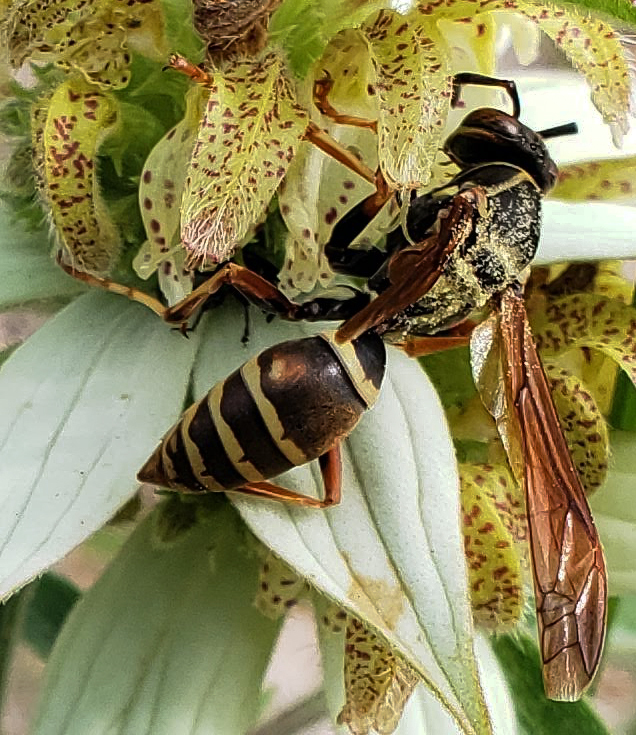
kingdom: Animalia
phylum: Arthropoda
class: Insecta
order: Hymenoptera
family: Eumenidae
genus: Polistes
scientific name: Polistes fuscatus
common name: Dark paper wasp
